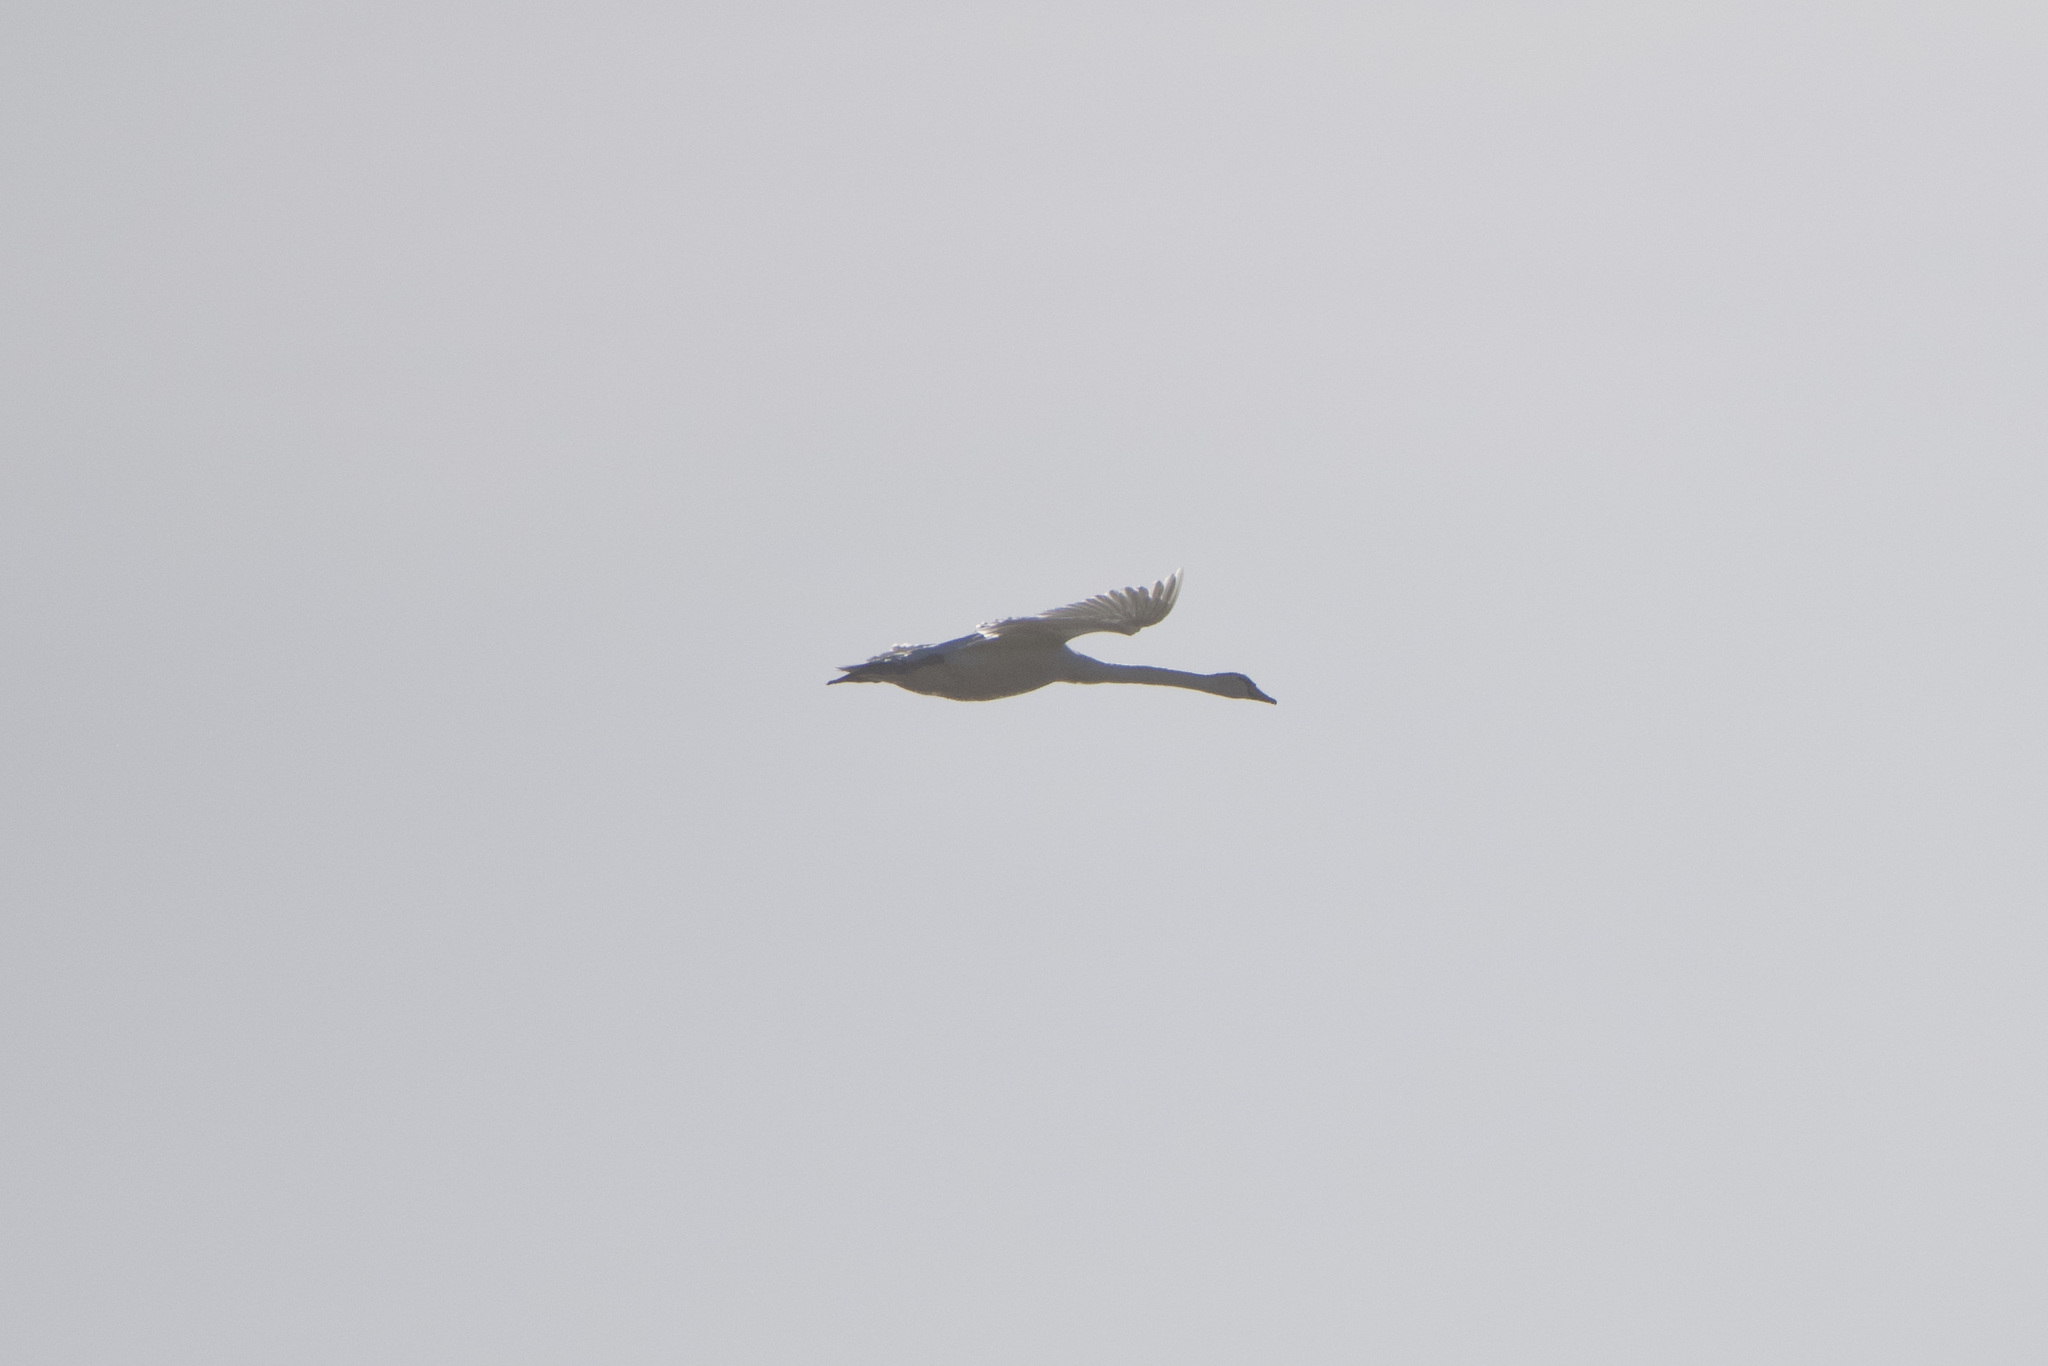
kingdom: Animalia
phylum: Chordata
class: Aves
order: Anseriformes
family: Anatidae
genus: Cygnus
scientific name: Cygnus olor
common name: Mute swan
